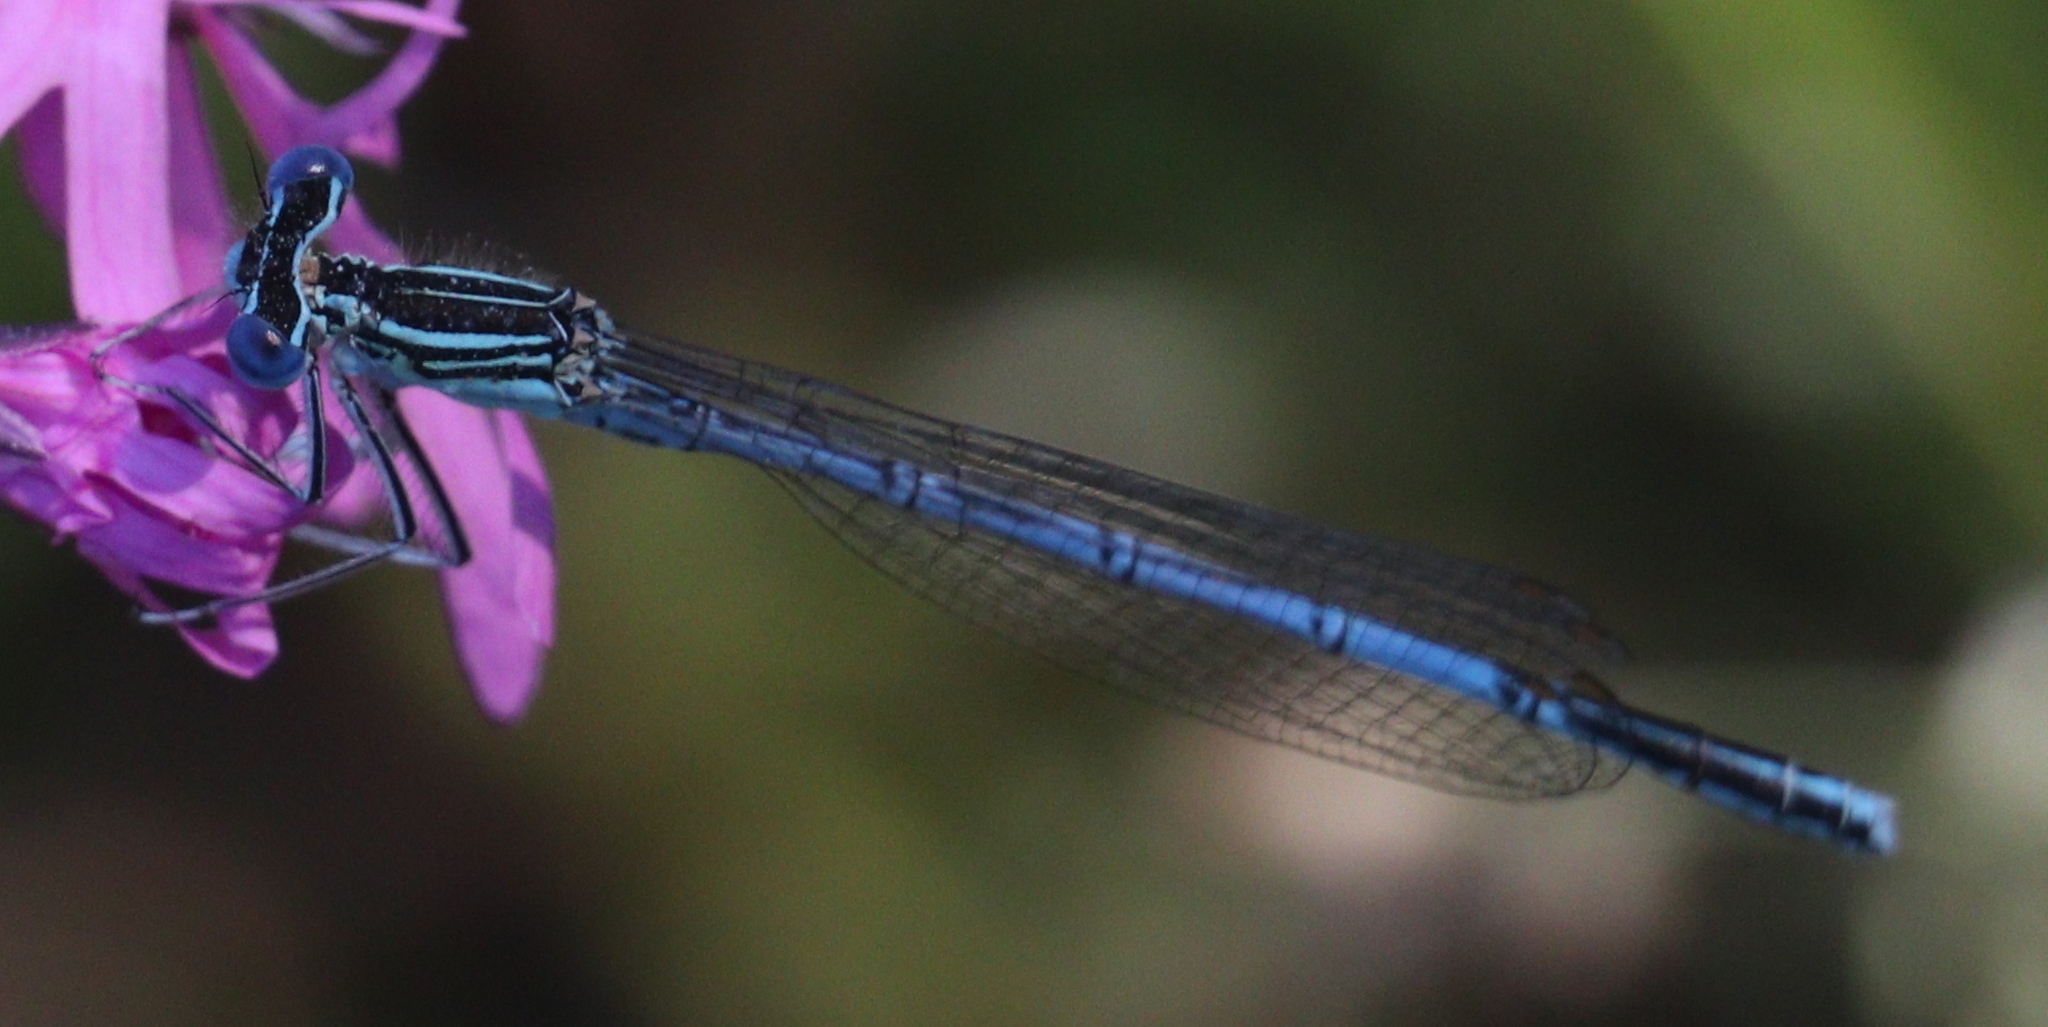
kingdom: Animalia
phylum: Arthropoda
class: Insecta
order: Odonata
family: Platycnemididae
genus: Platycnemis
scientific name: Platycnemis pennipes
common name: White-legged damselfly
